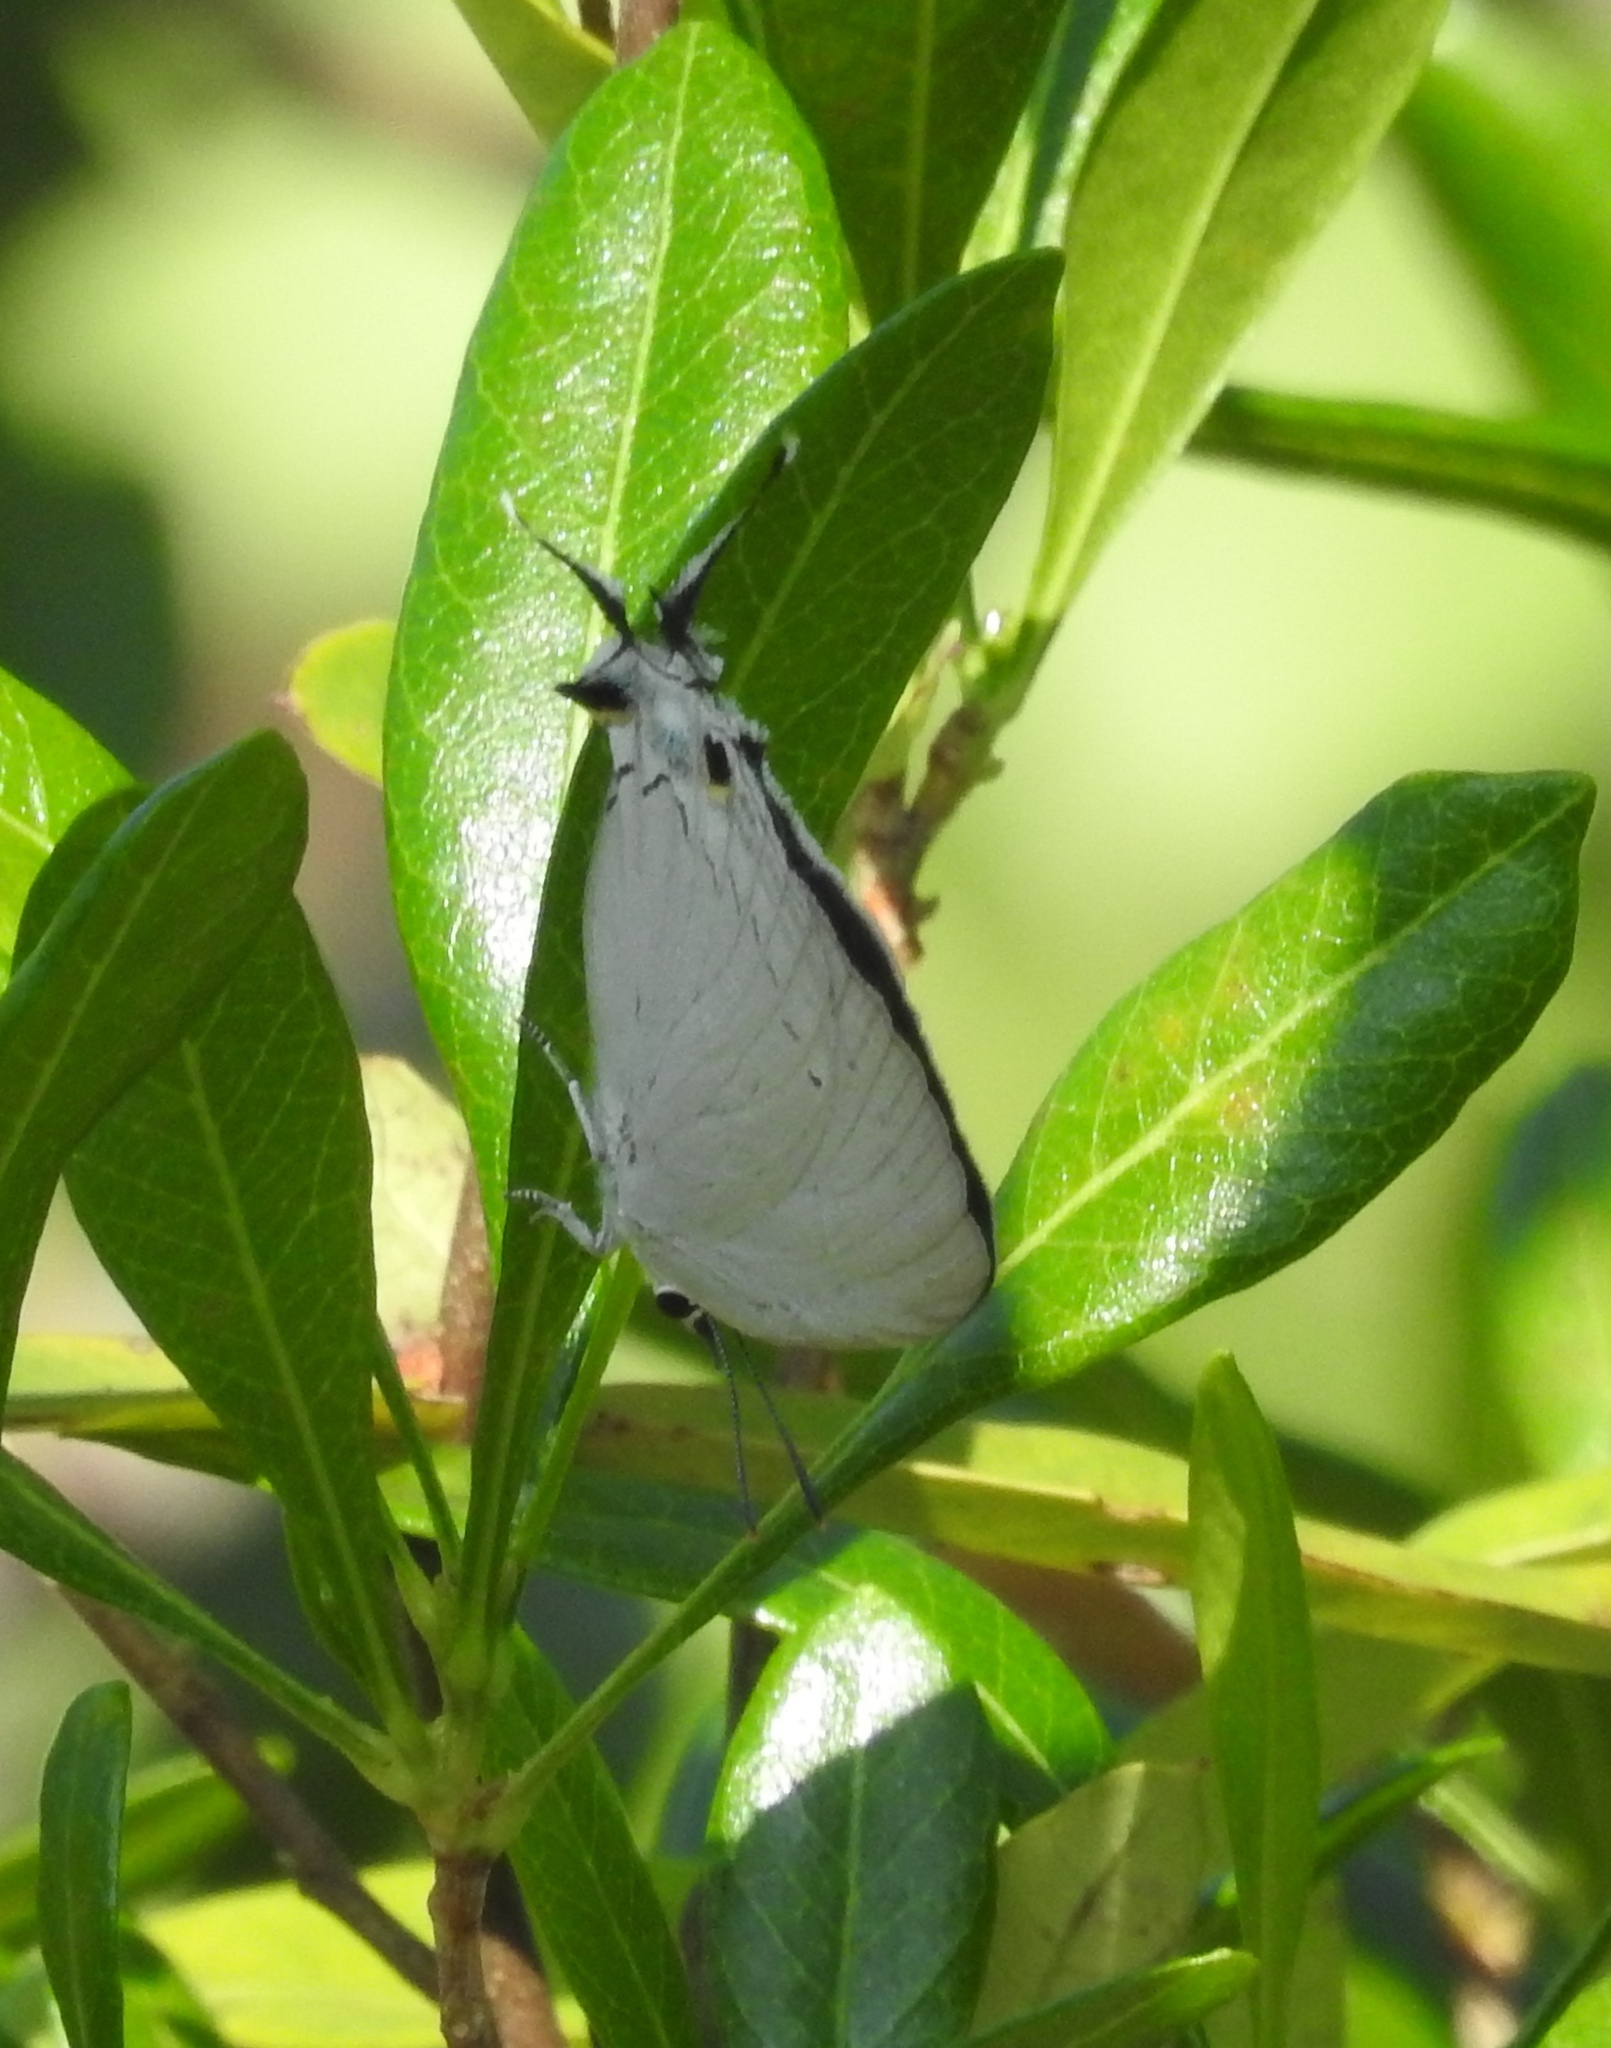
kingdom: Animalia
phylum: Arthropoda
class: Insecta
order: Lepidoptera
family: Lycaenidae
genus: Tajuria
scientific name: Tajuria cippus
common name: Peacock royal
